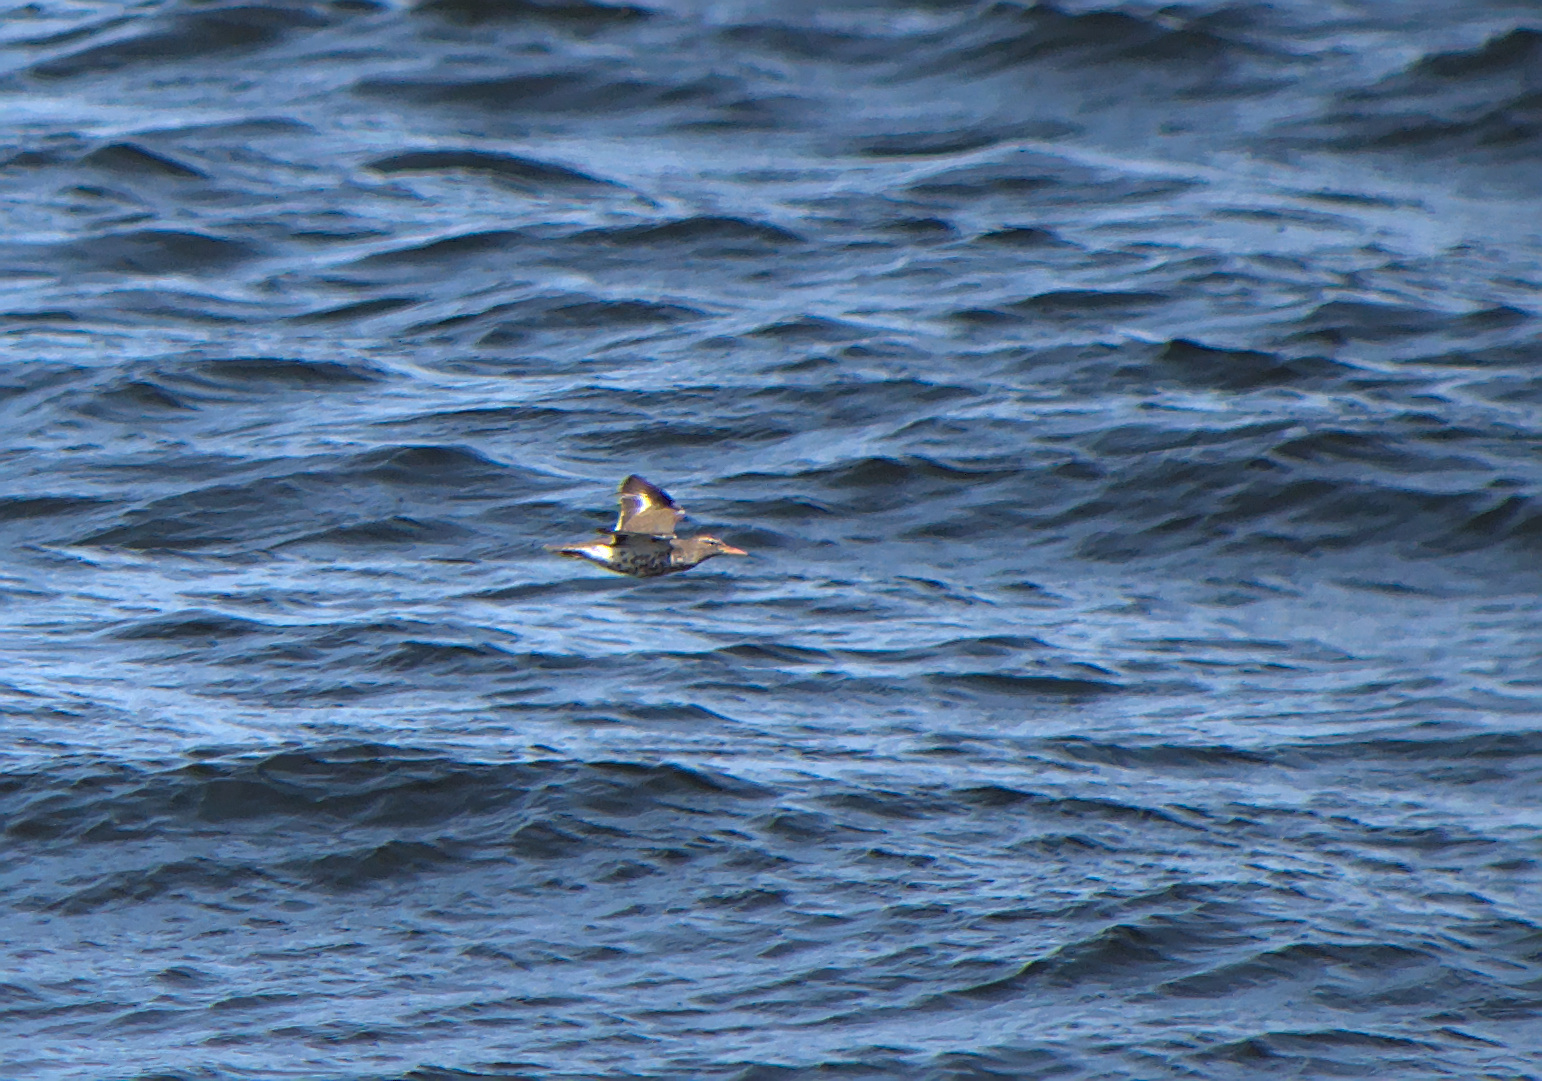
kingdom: Animalia
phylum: Chordata
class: Aves
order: Charadriiformes
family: Scolopacidae
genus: Actitis
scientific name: Actitis macularius
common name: Spotted sandpiper
